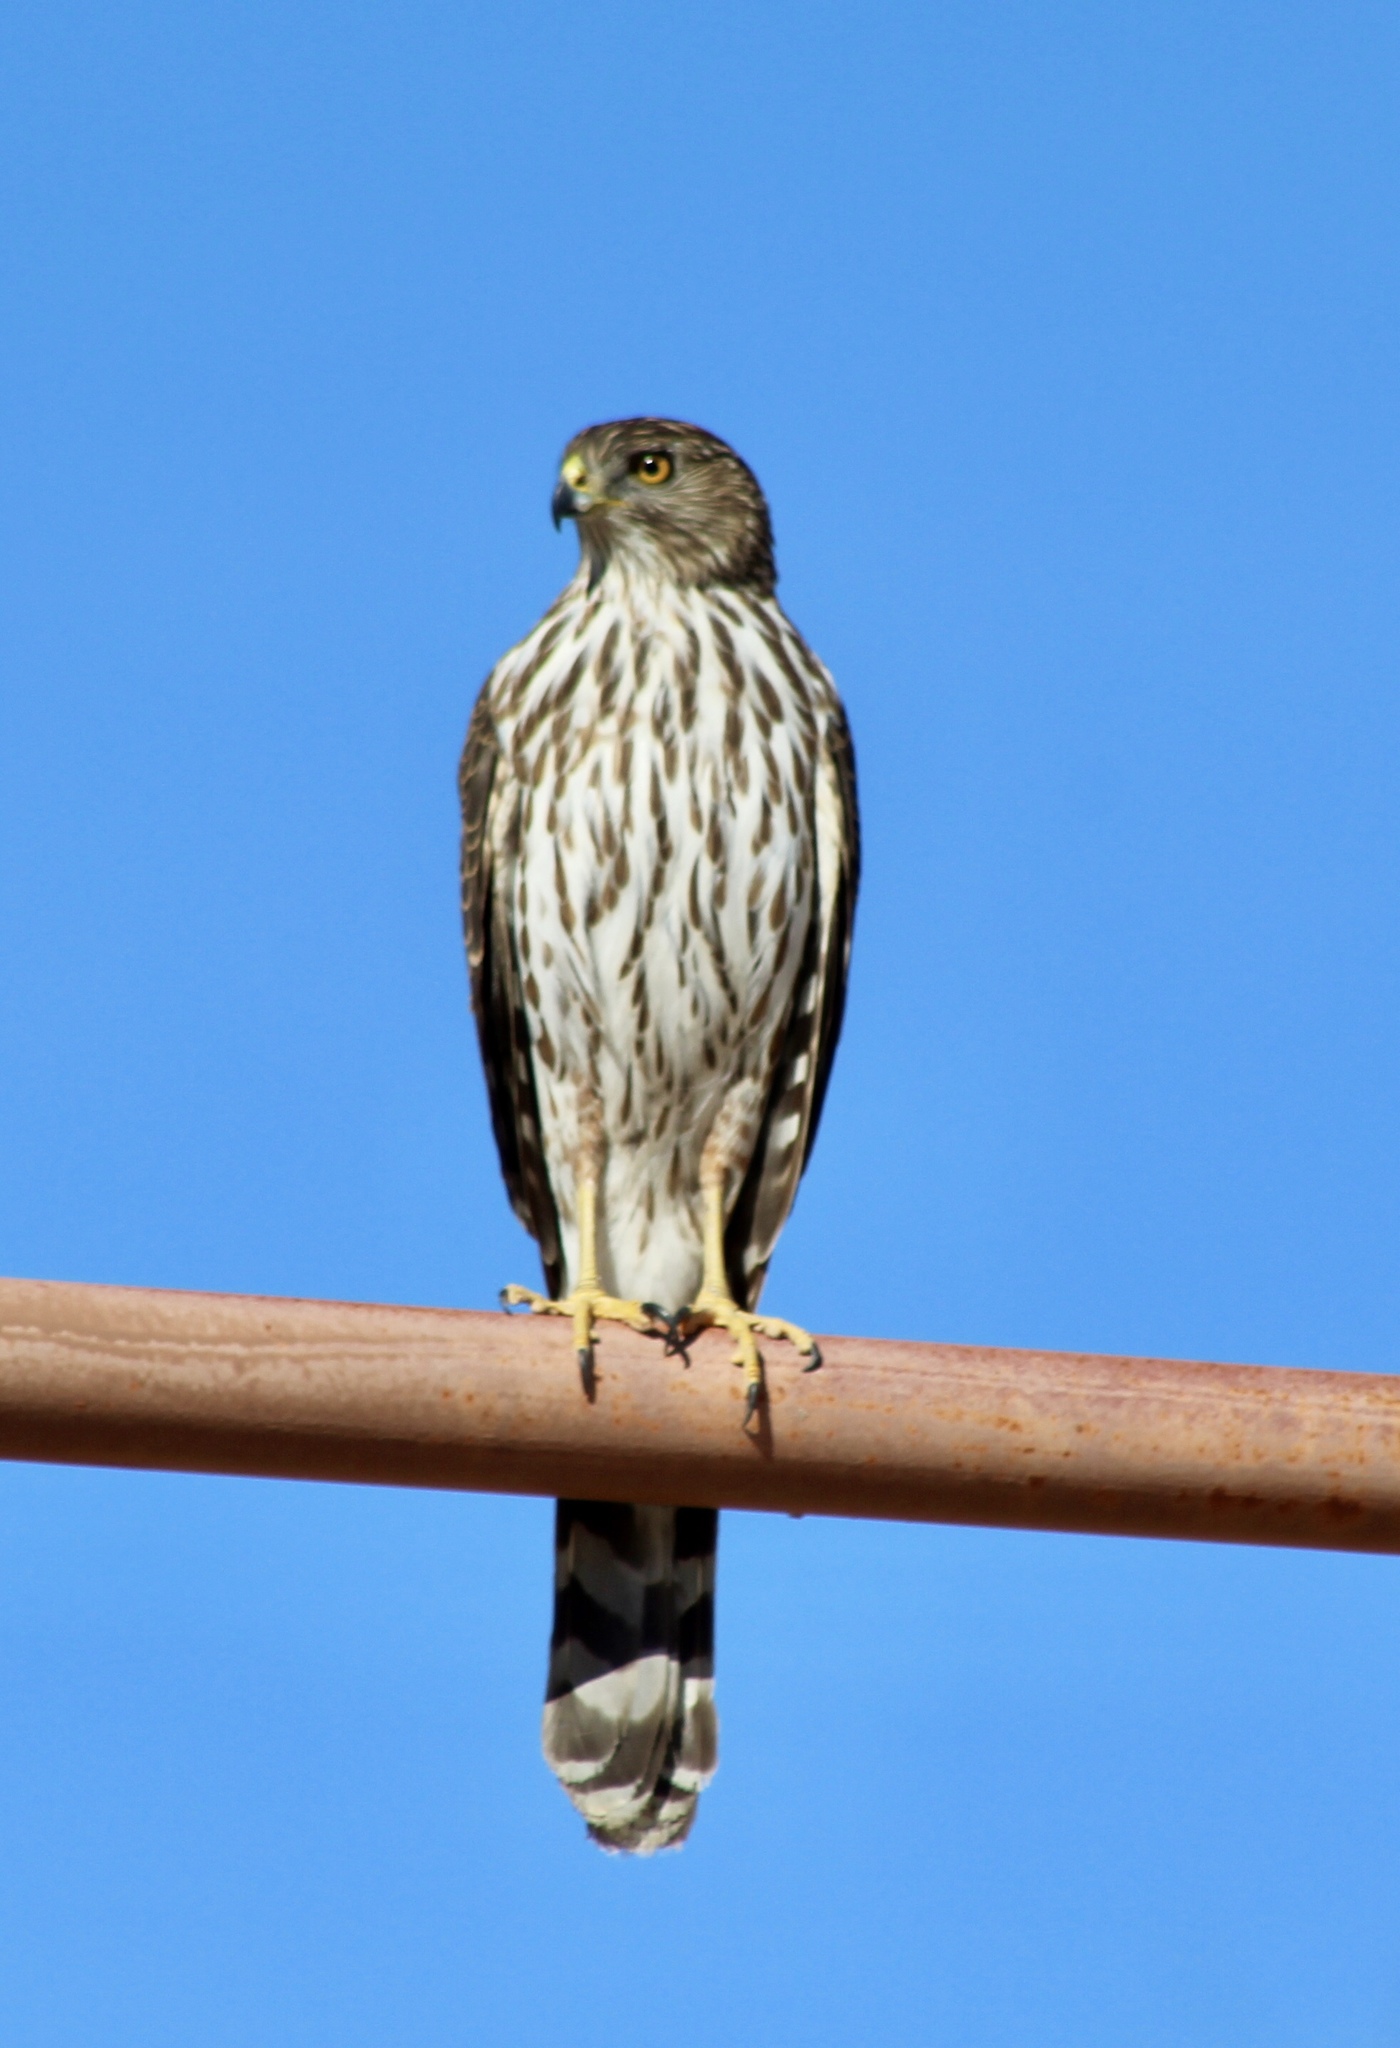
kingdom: Animalia
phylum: Chordata
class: Aves
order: Accipitriformes
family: Accipitridae
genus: Accipiter
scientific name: Accipiter cooperii
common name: Cooper's hawk
